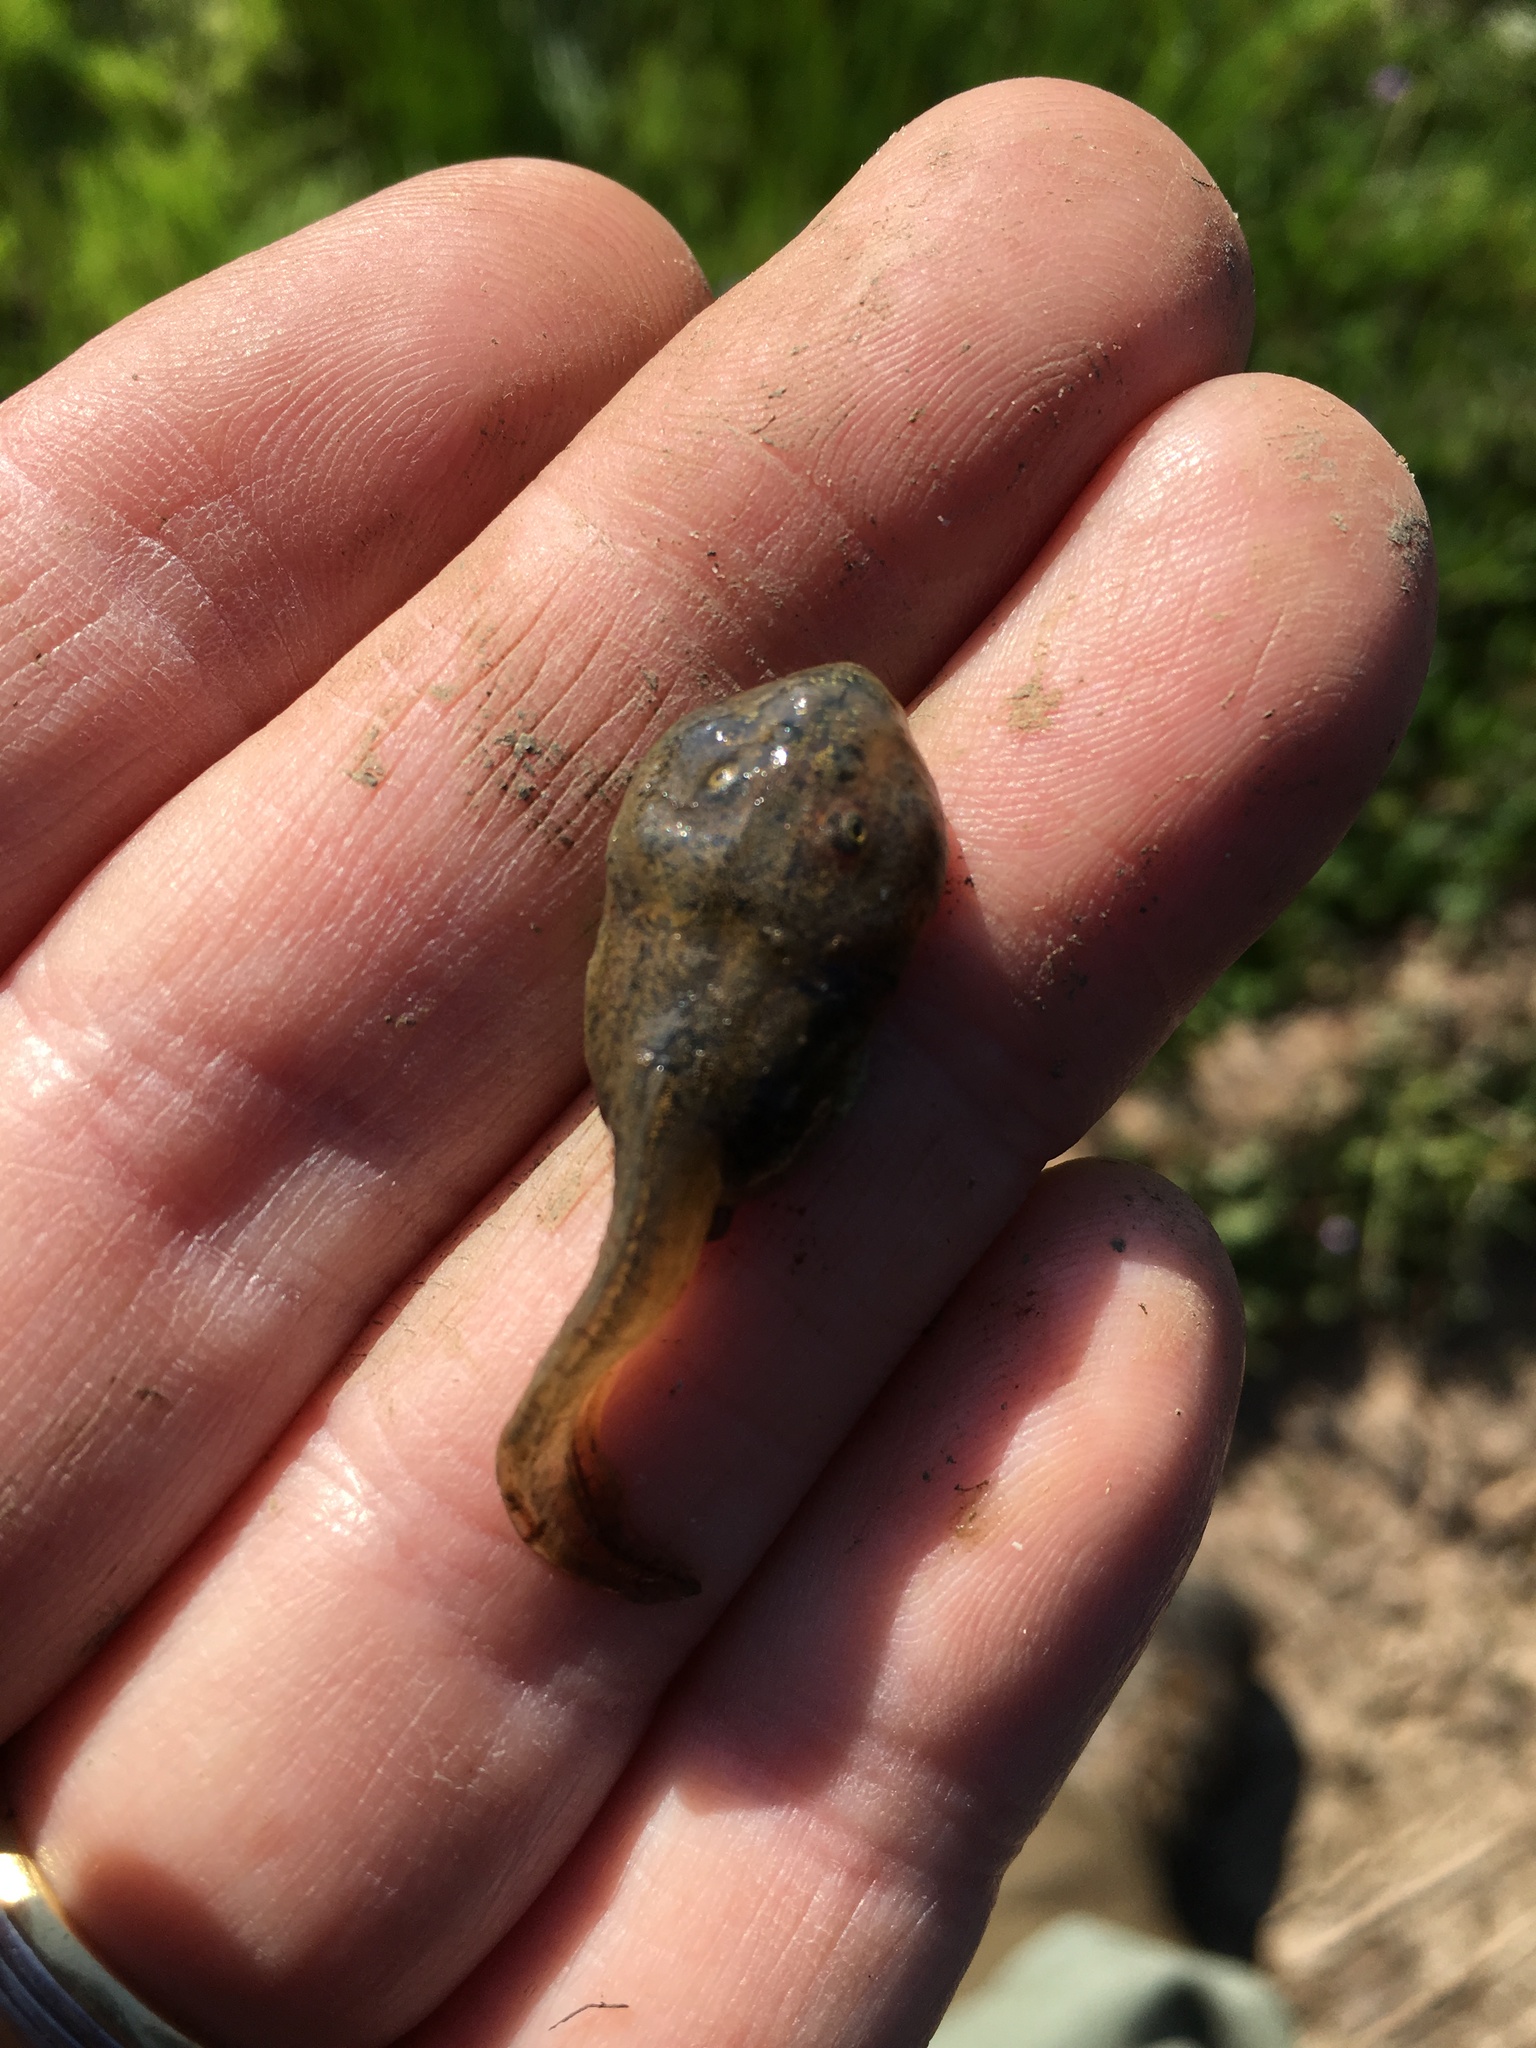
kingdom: Animalia
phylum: Chordata
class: Amphibia
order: Anura
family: Scaphiopodidae
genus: Spea
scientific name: Spea hammondii
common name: Western spadefoot toad
